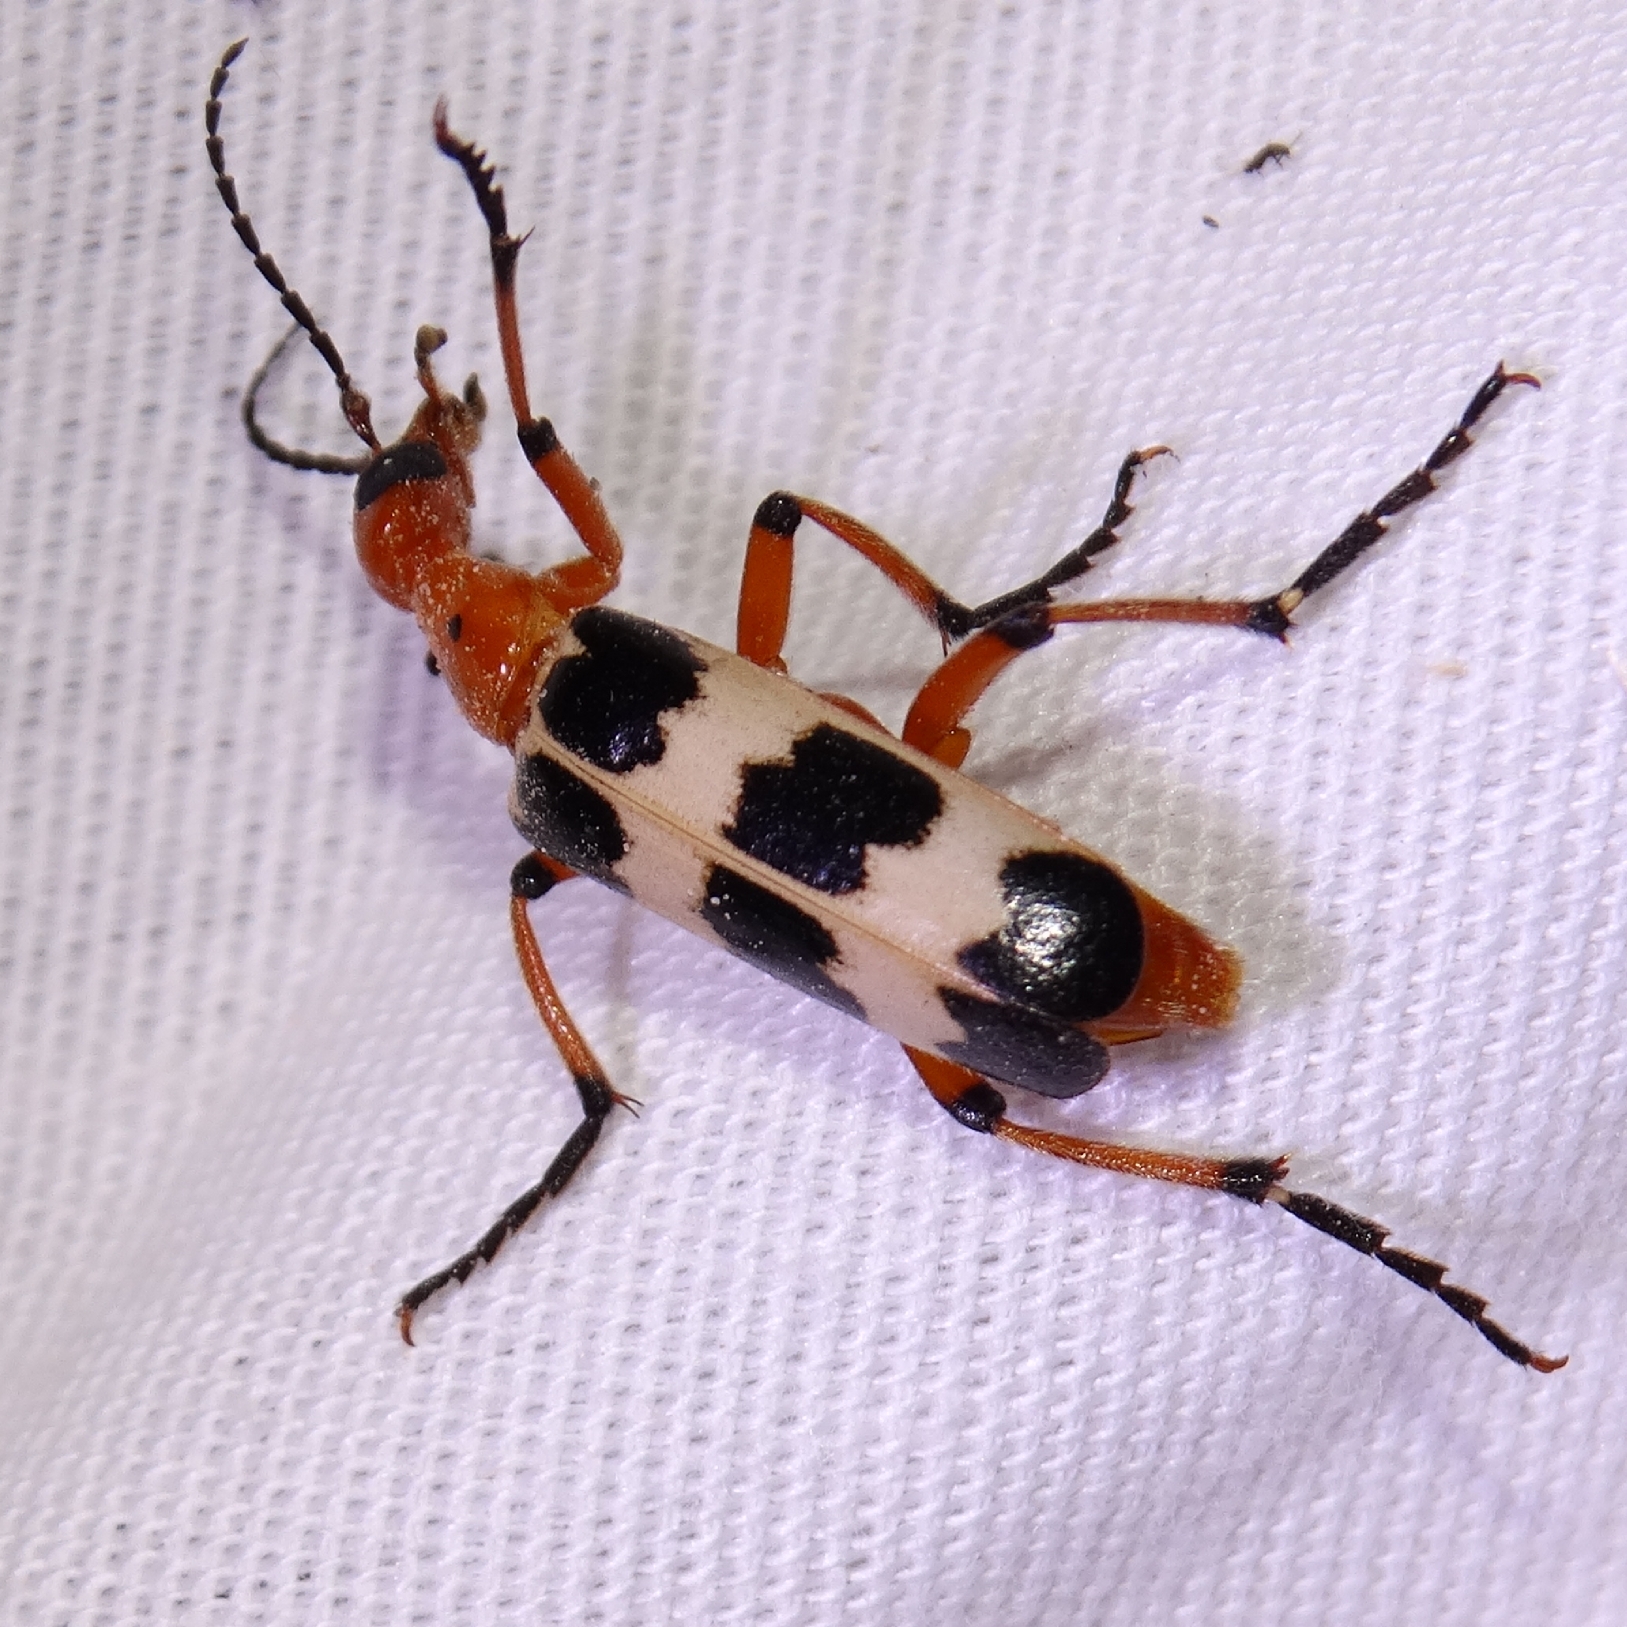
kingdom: Animalia
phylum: Arthropoda
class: Insecta
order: Coleoptera
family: Meloidae
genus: Pyrota
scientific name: Pyrota palpalis
